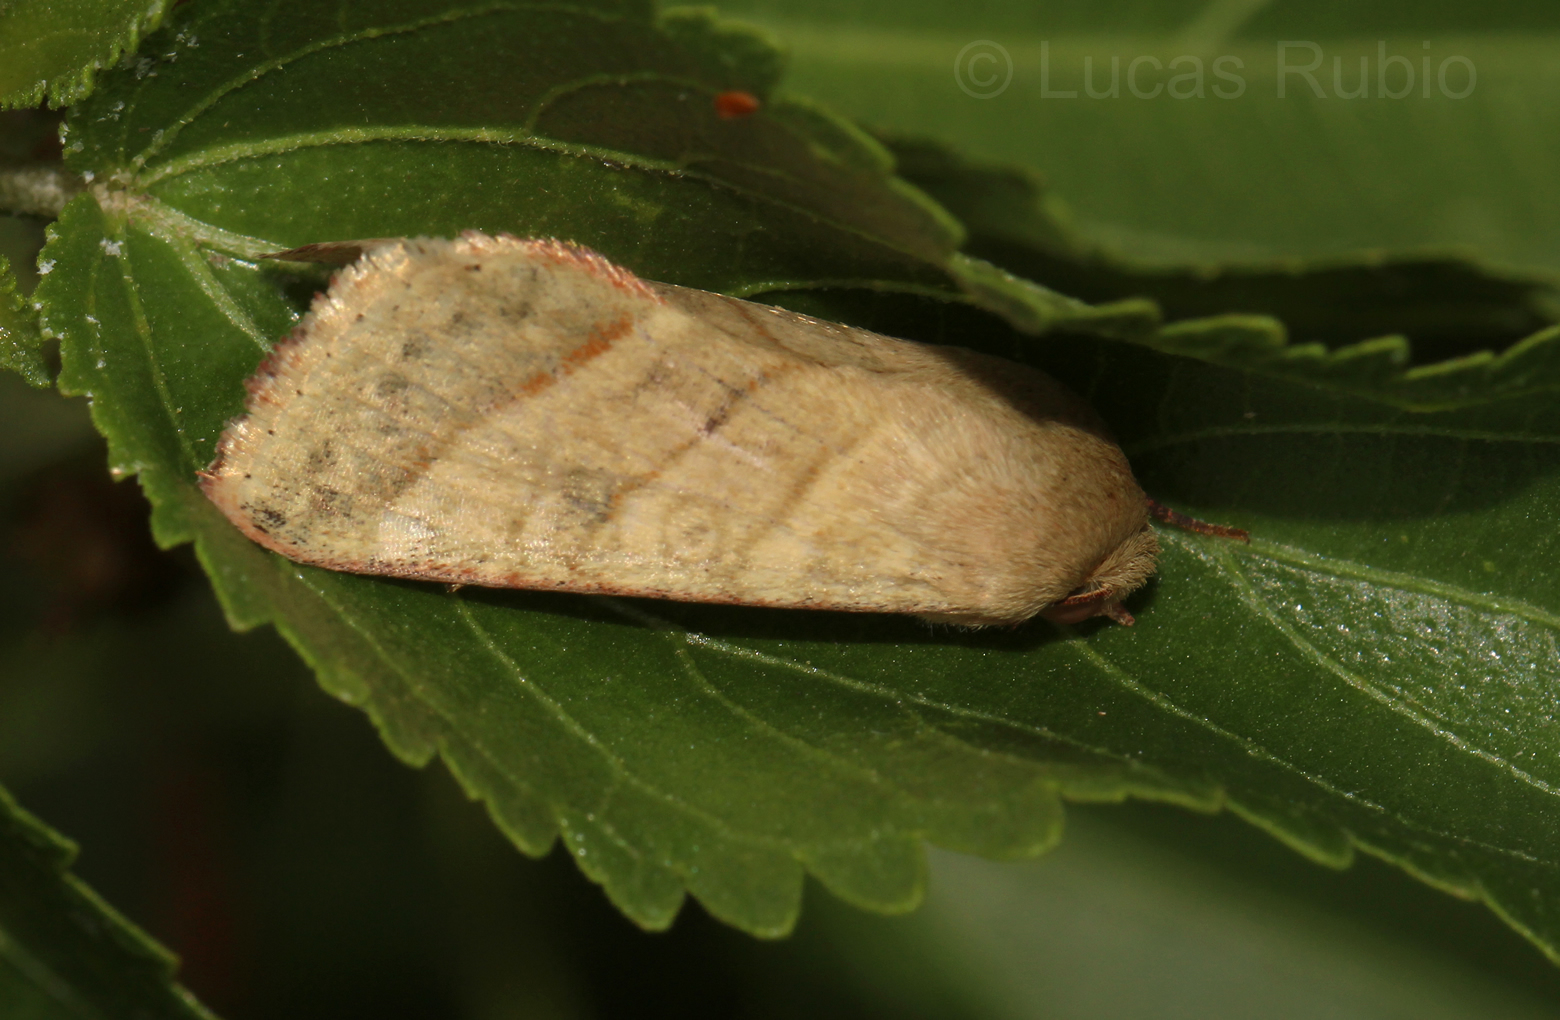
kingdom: Animalia
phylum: Arthropoda
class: Insecta
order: Lepidoptera
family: Noctuidae
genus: Chloridea
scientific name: Chloridea virescens
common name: Tobacco budworm
